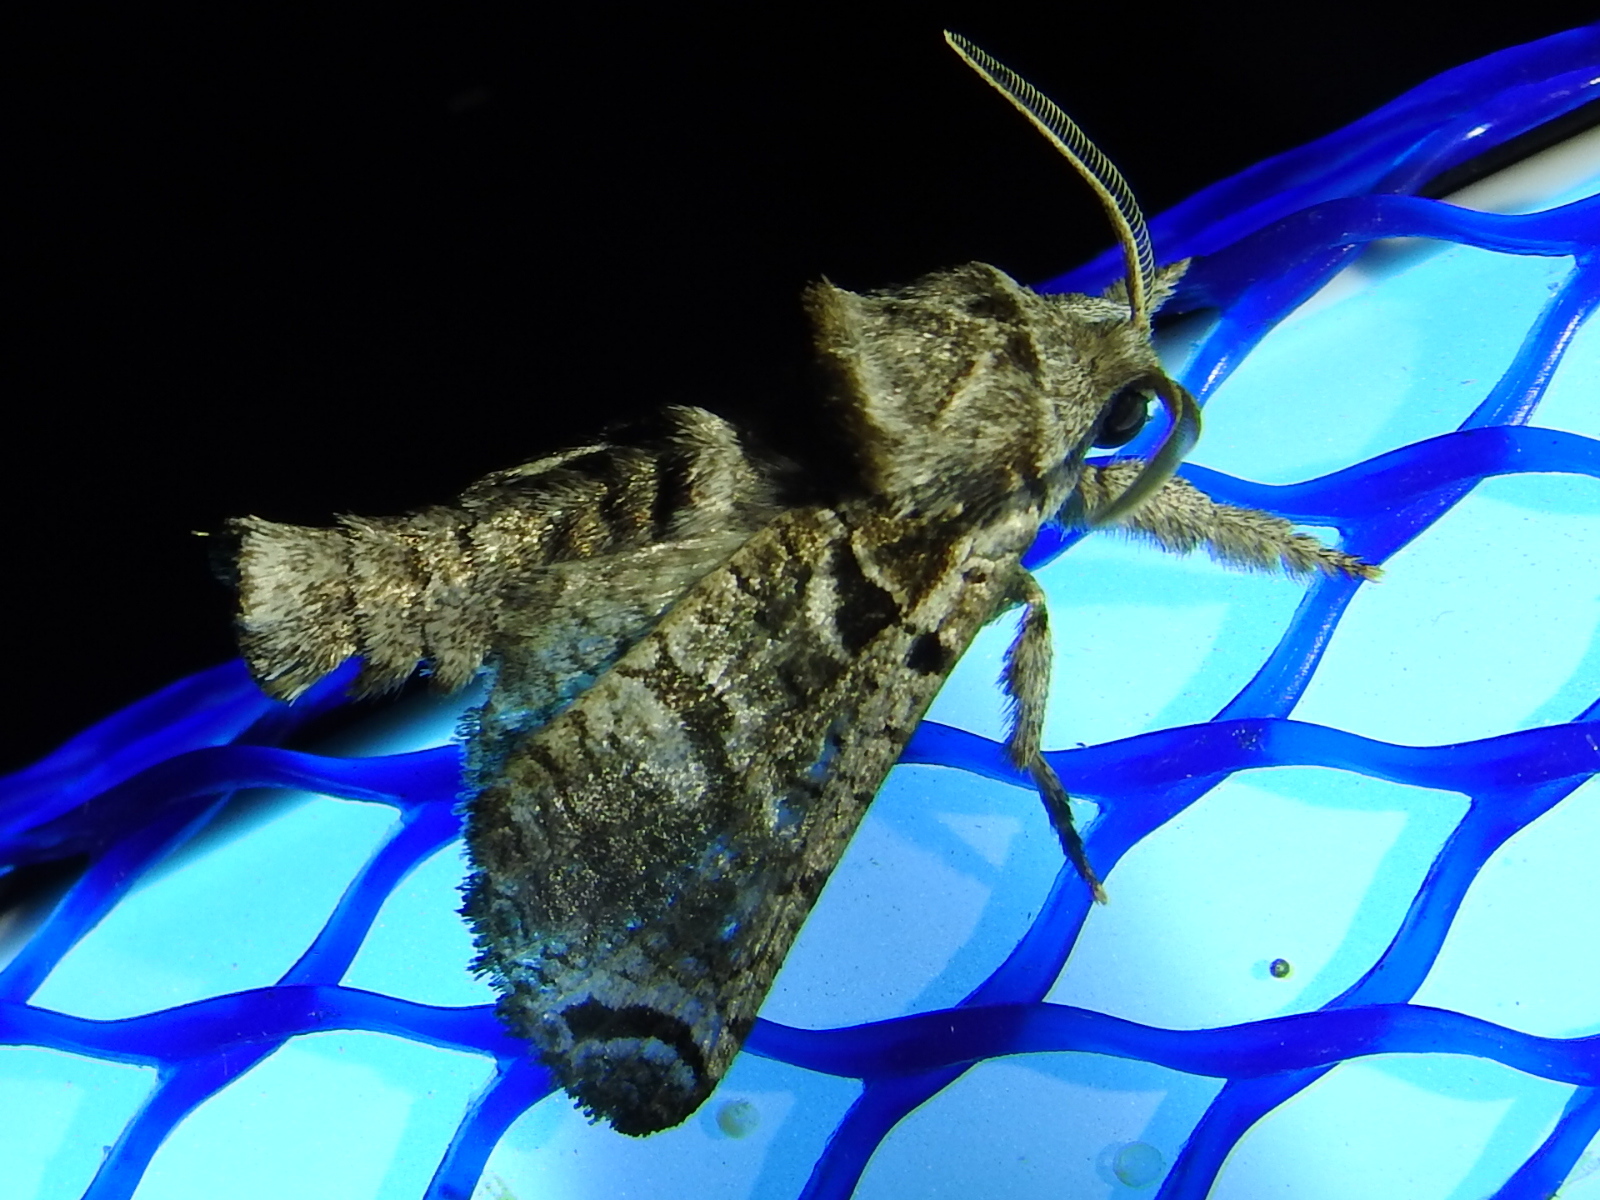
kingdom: Animalia
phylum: Arthropoda
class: Insecta
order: Lepidoptera
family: Cossidae
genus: Inguromorpha
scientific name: Inguromorpha
